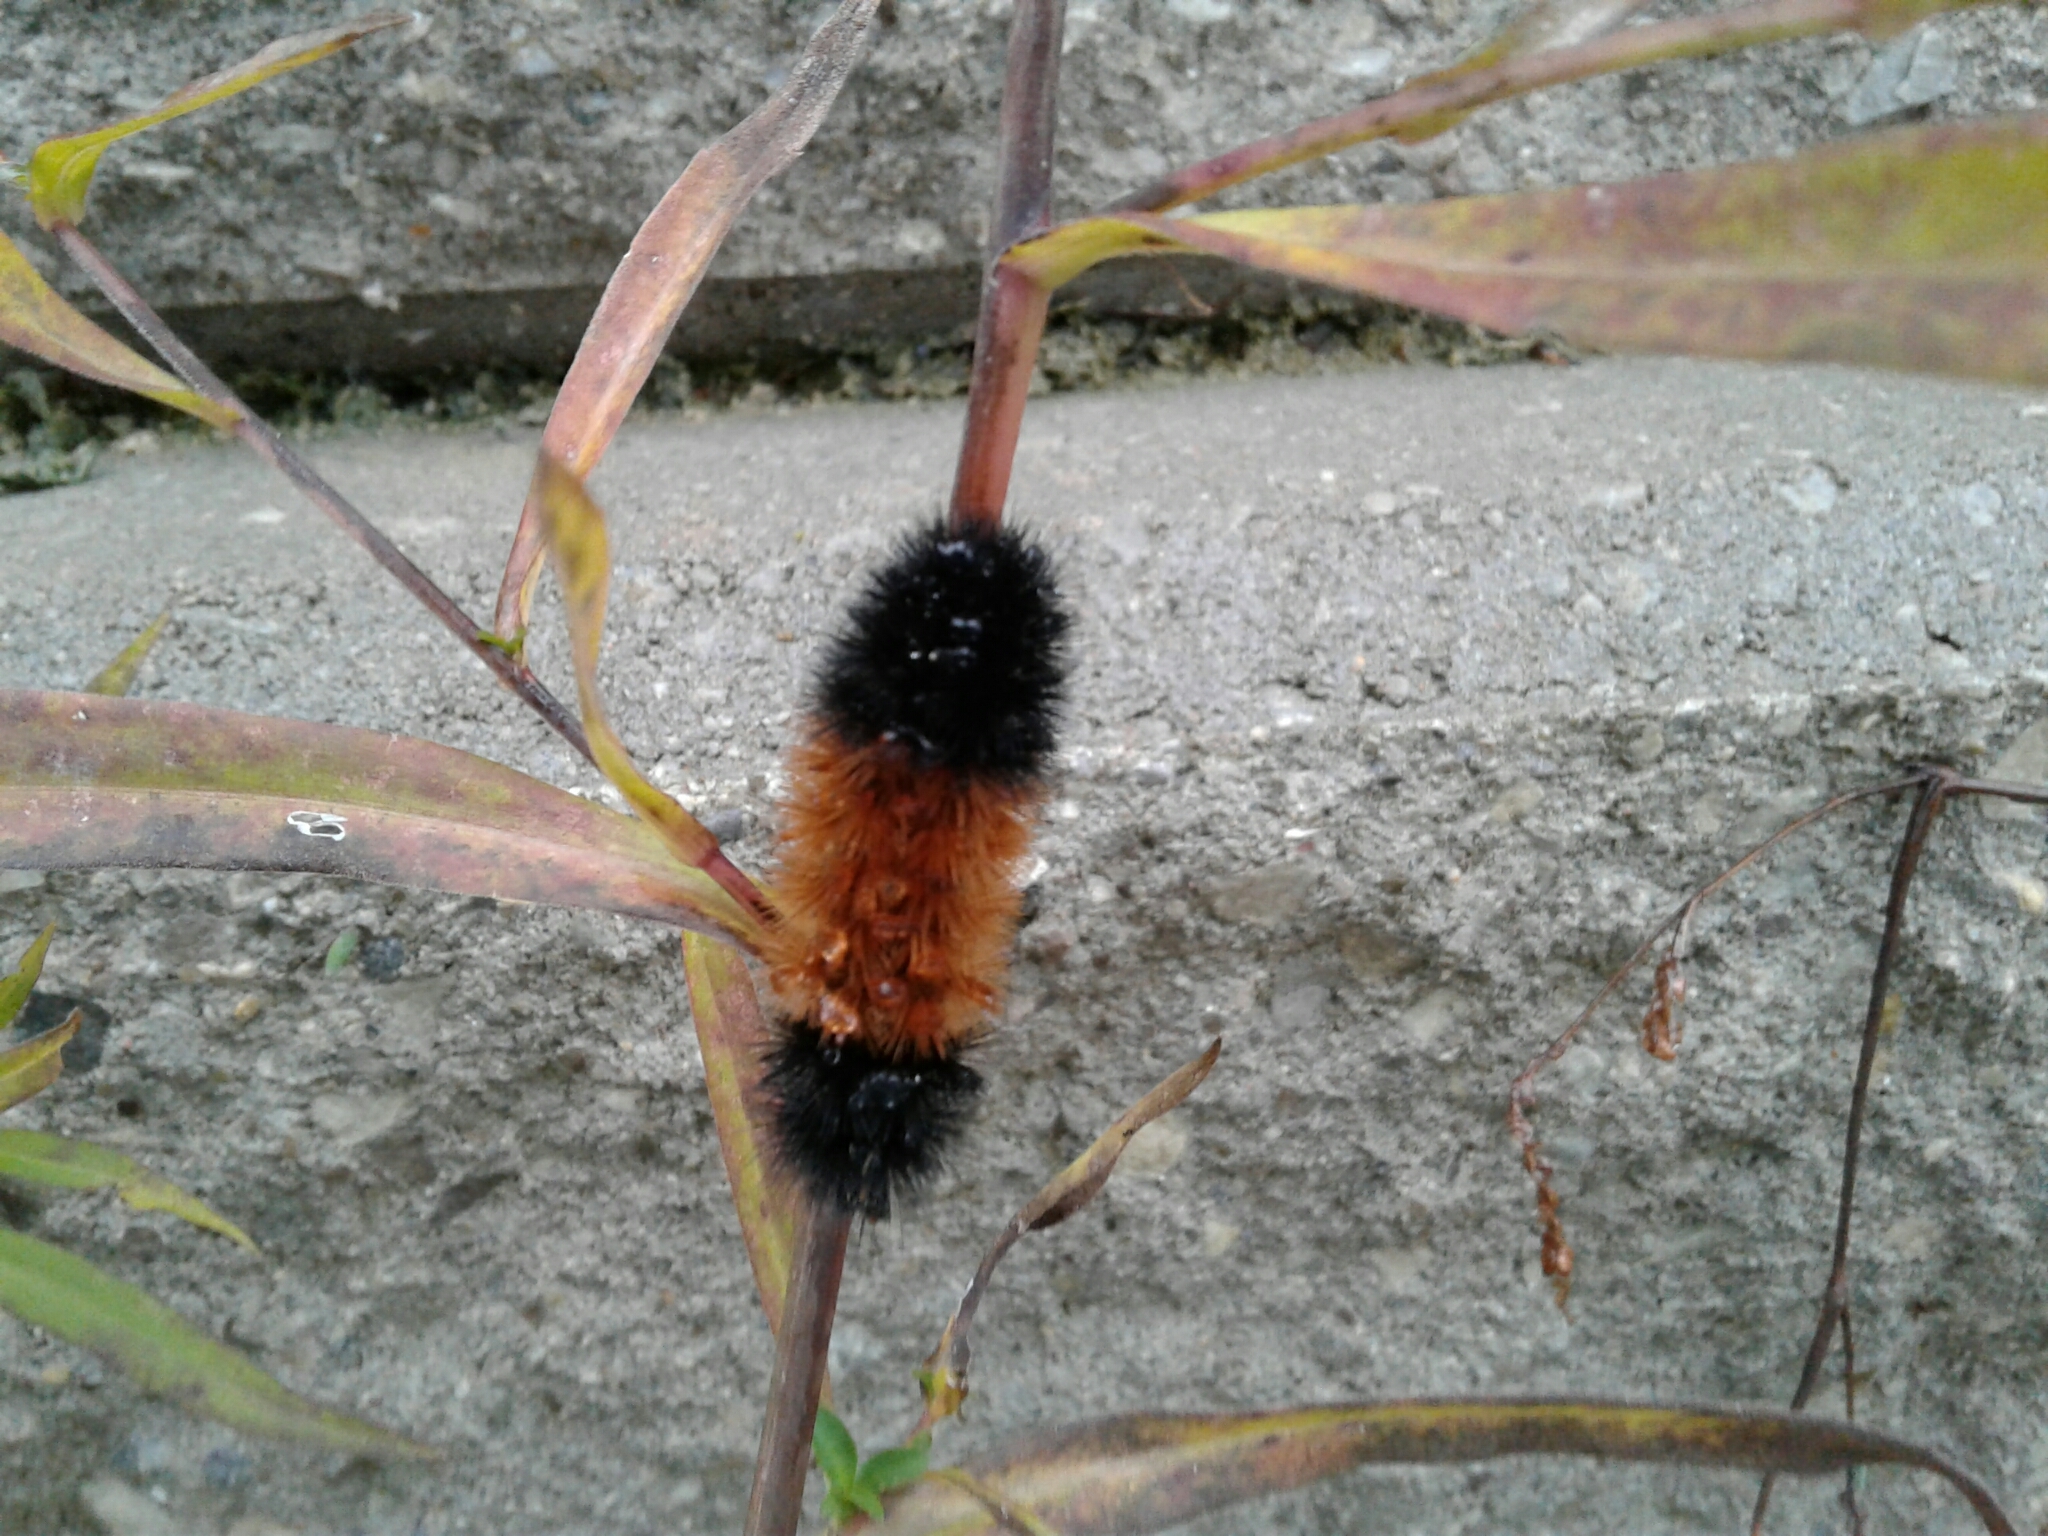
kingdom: Animalia
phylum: Arthropoda
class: Insecta
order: Lepidoptera
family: Erebidae
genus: Pyrrharctia
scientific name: Pyrrharctia isabella
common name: Isabella tiger moth
